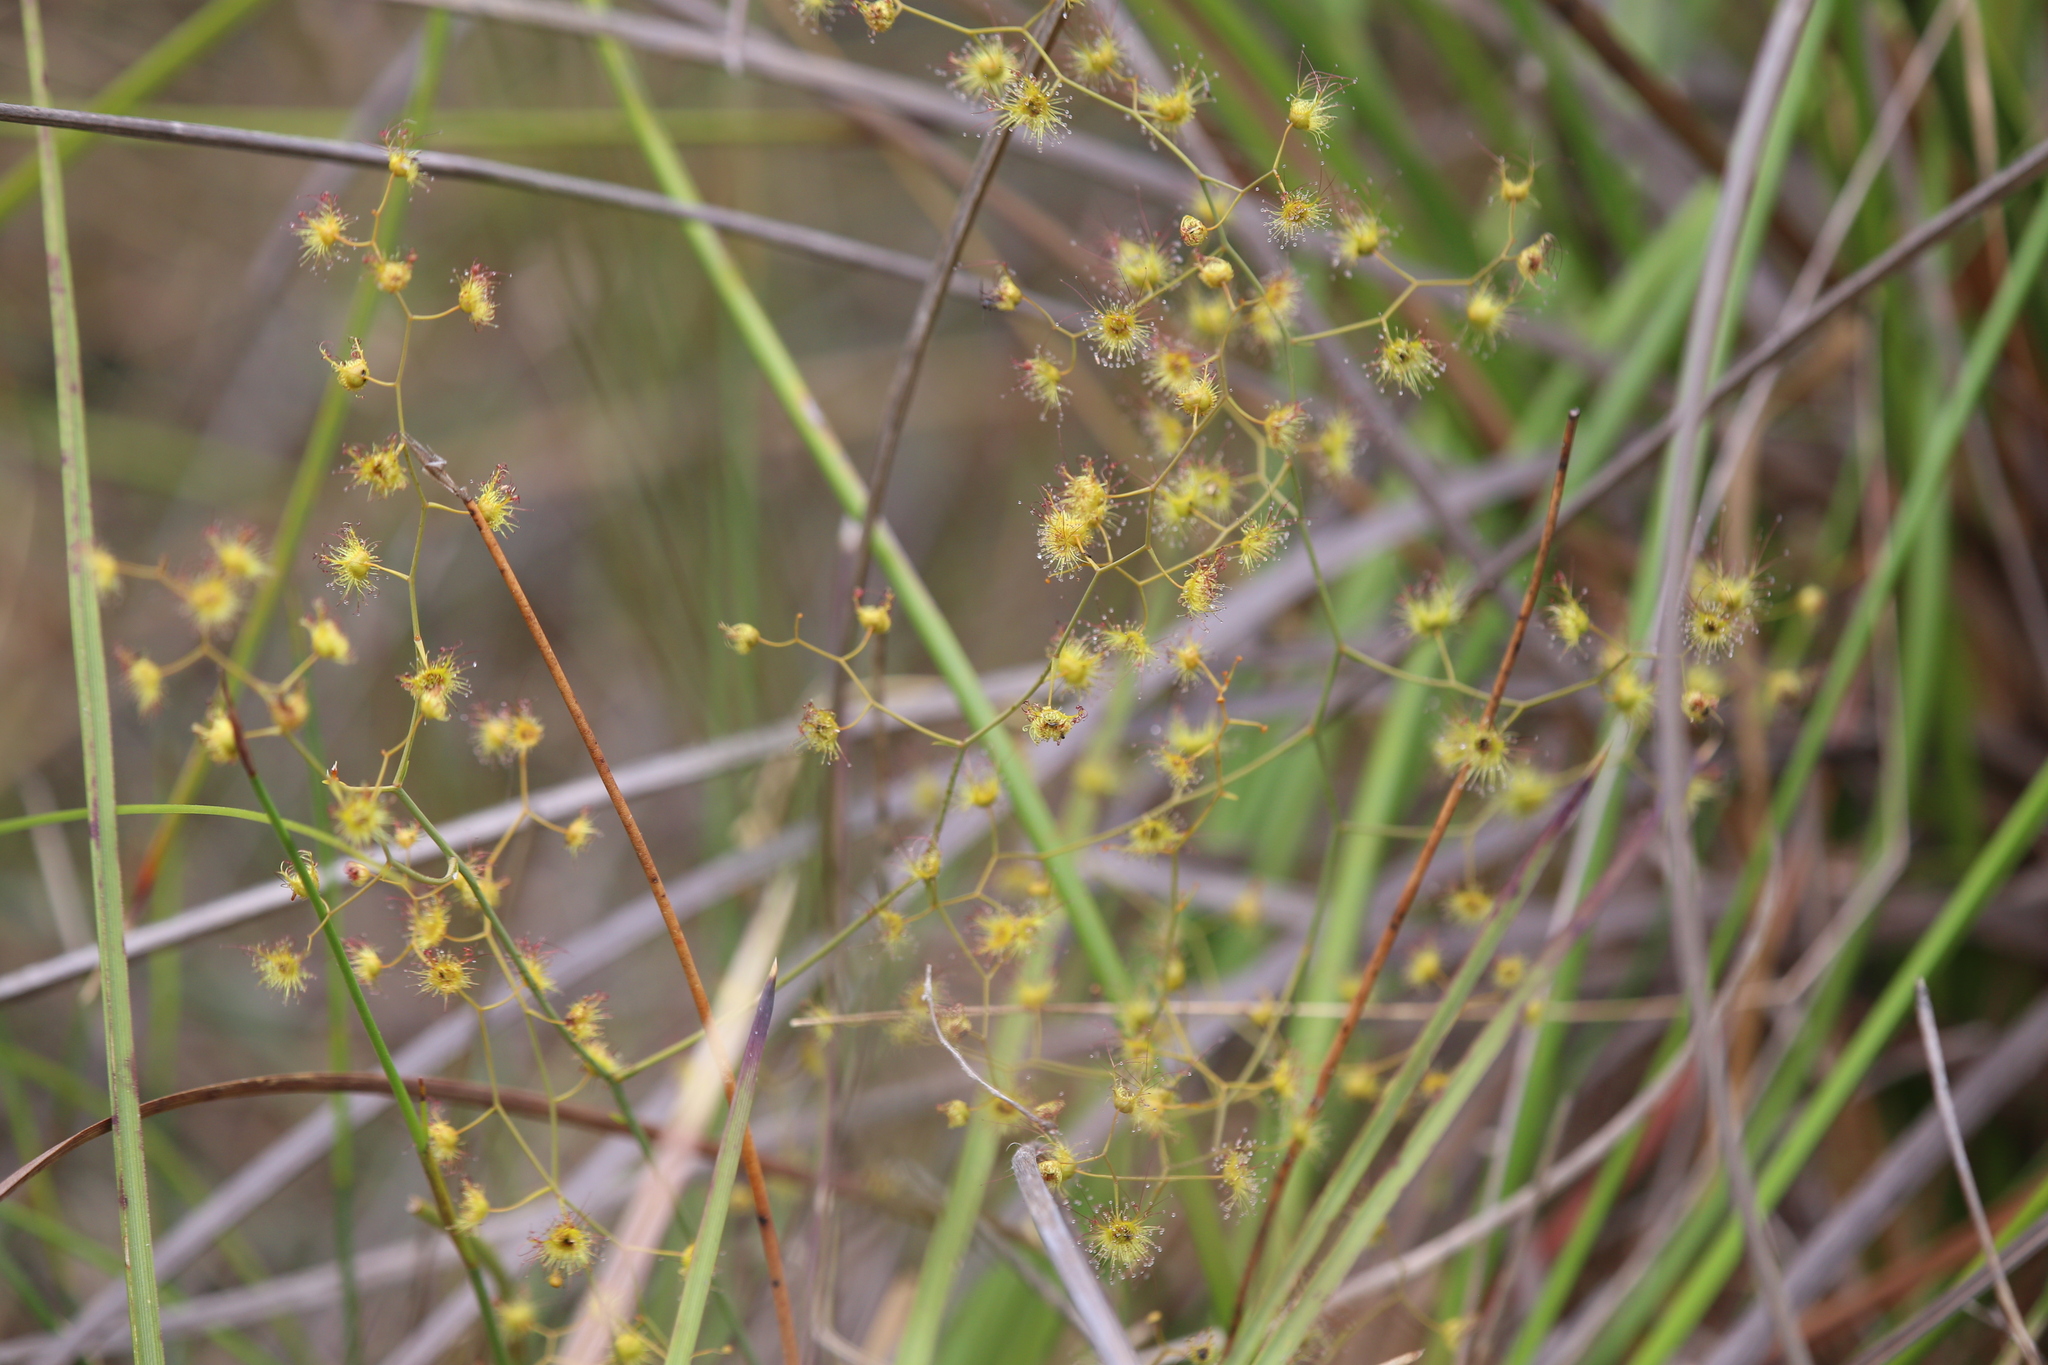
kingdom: Plantae
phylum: Tracheophyta
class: Magnoliopsida
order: Caryophyllales
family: Droseraceae
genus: Drosera
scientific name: Drosera gigantea
